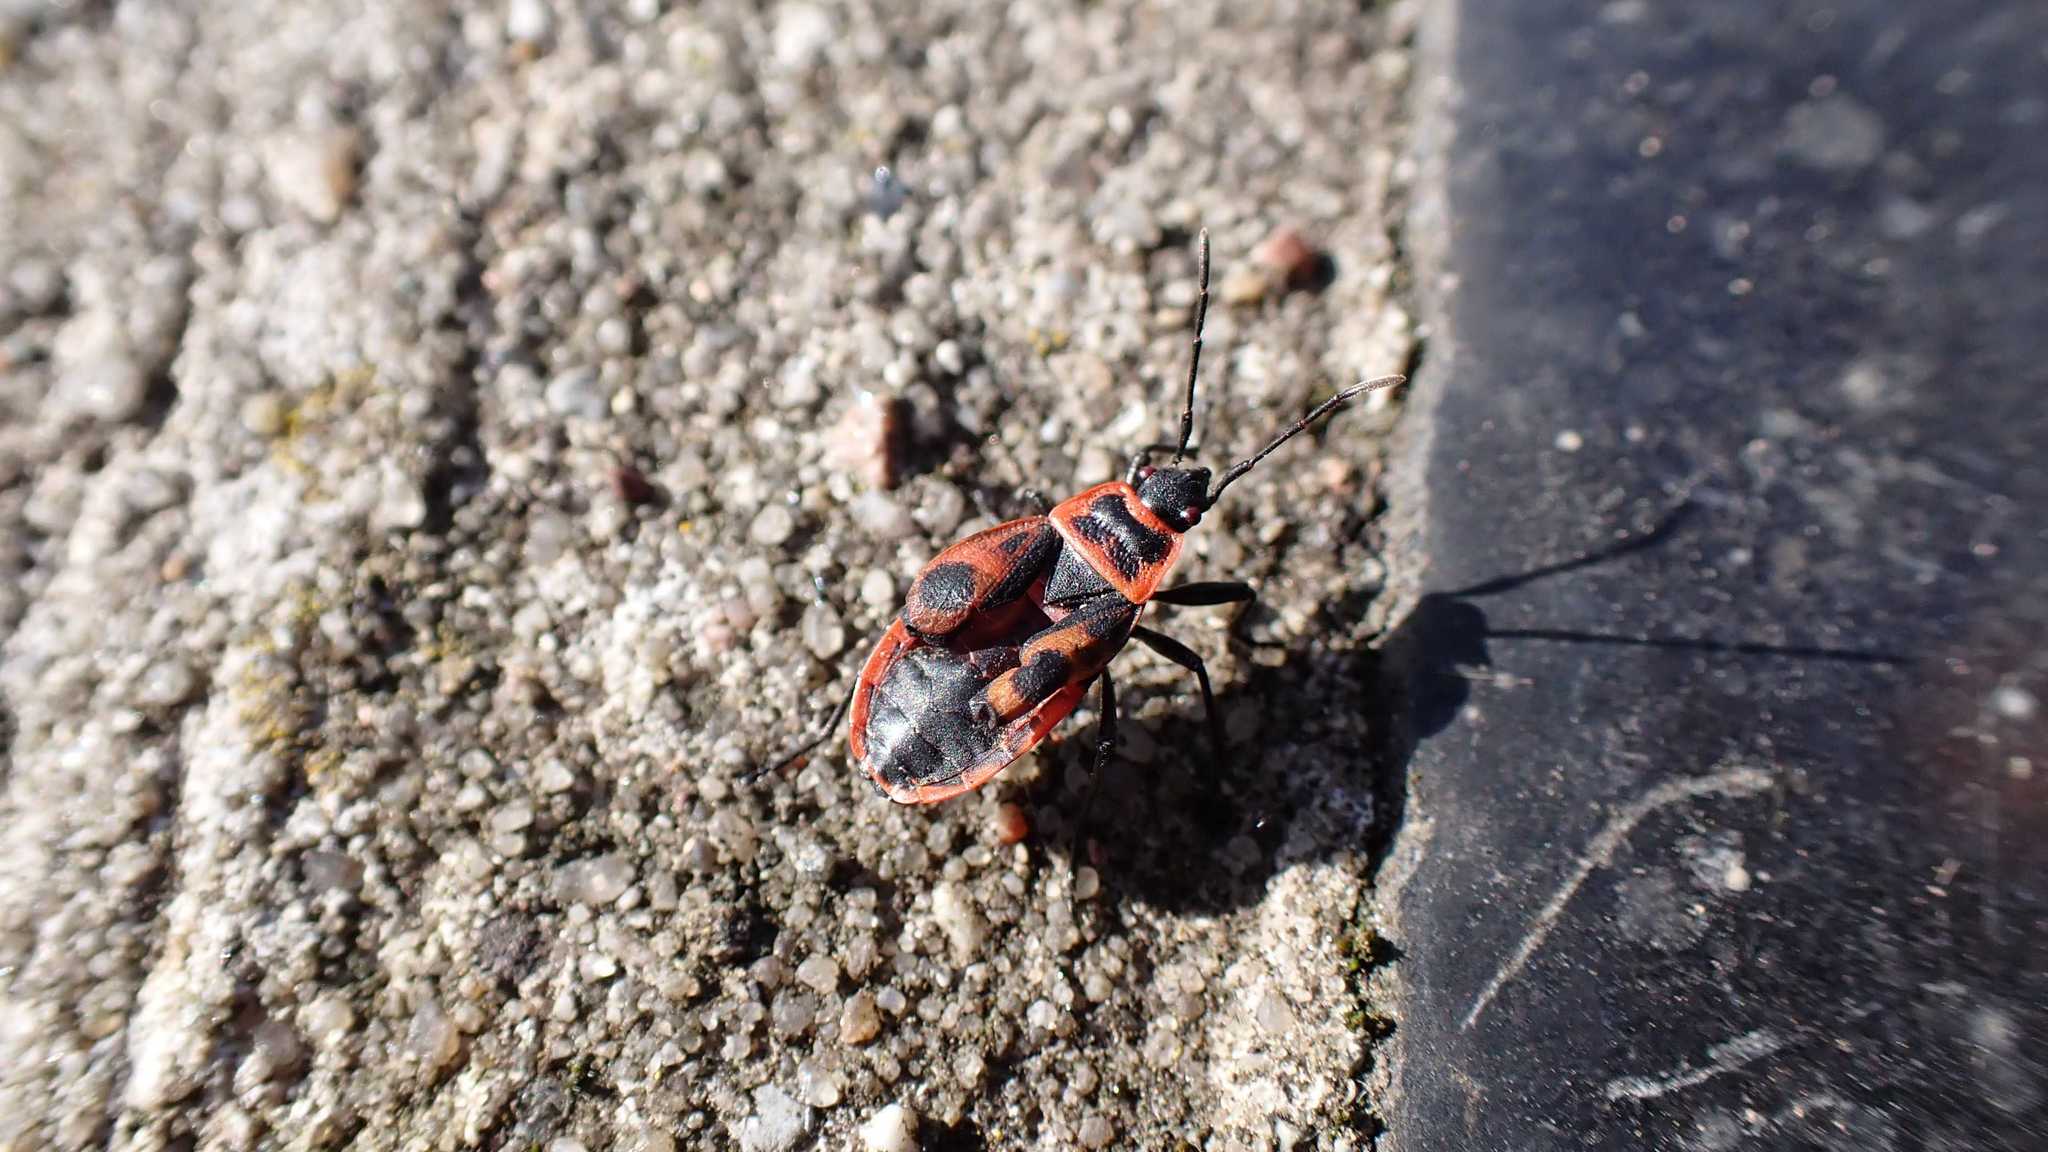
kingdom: Animalia
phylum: Arthropoda
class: Insecta
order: Hemiptera
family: Pyrrhocoridae
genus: Pyrrhocoris
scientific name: Pyrrhocoris apterus
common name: Firebug
